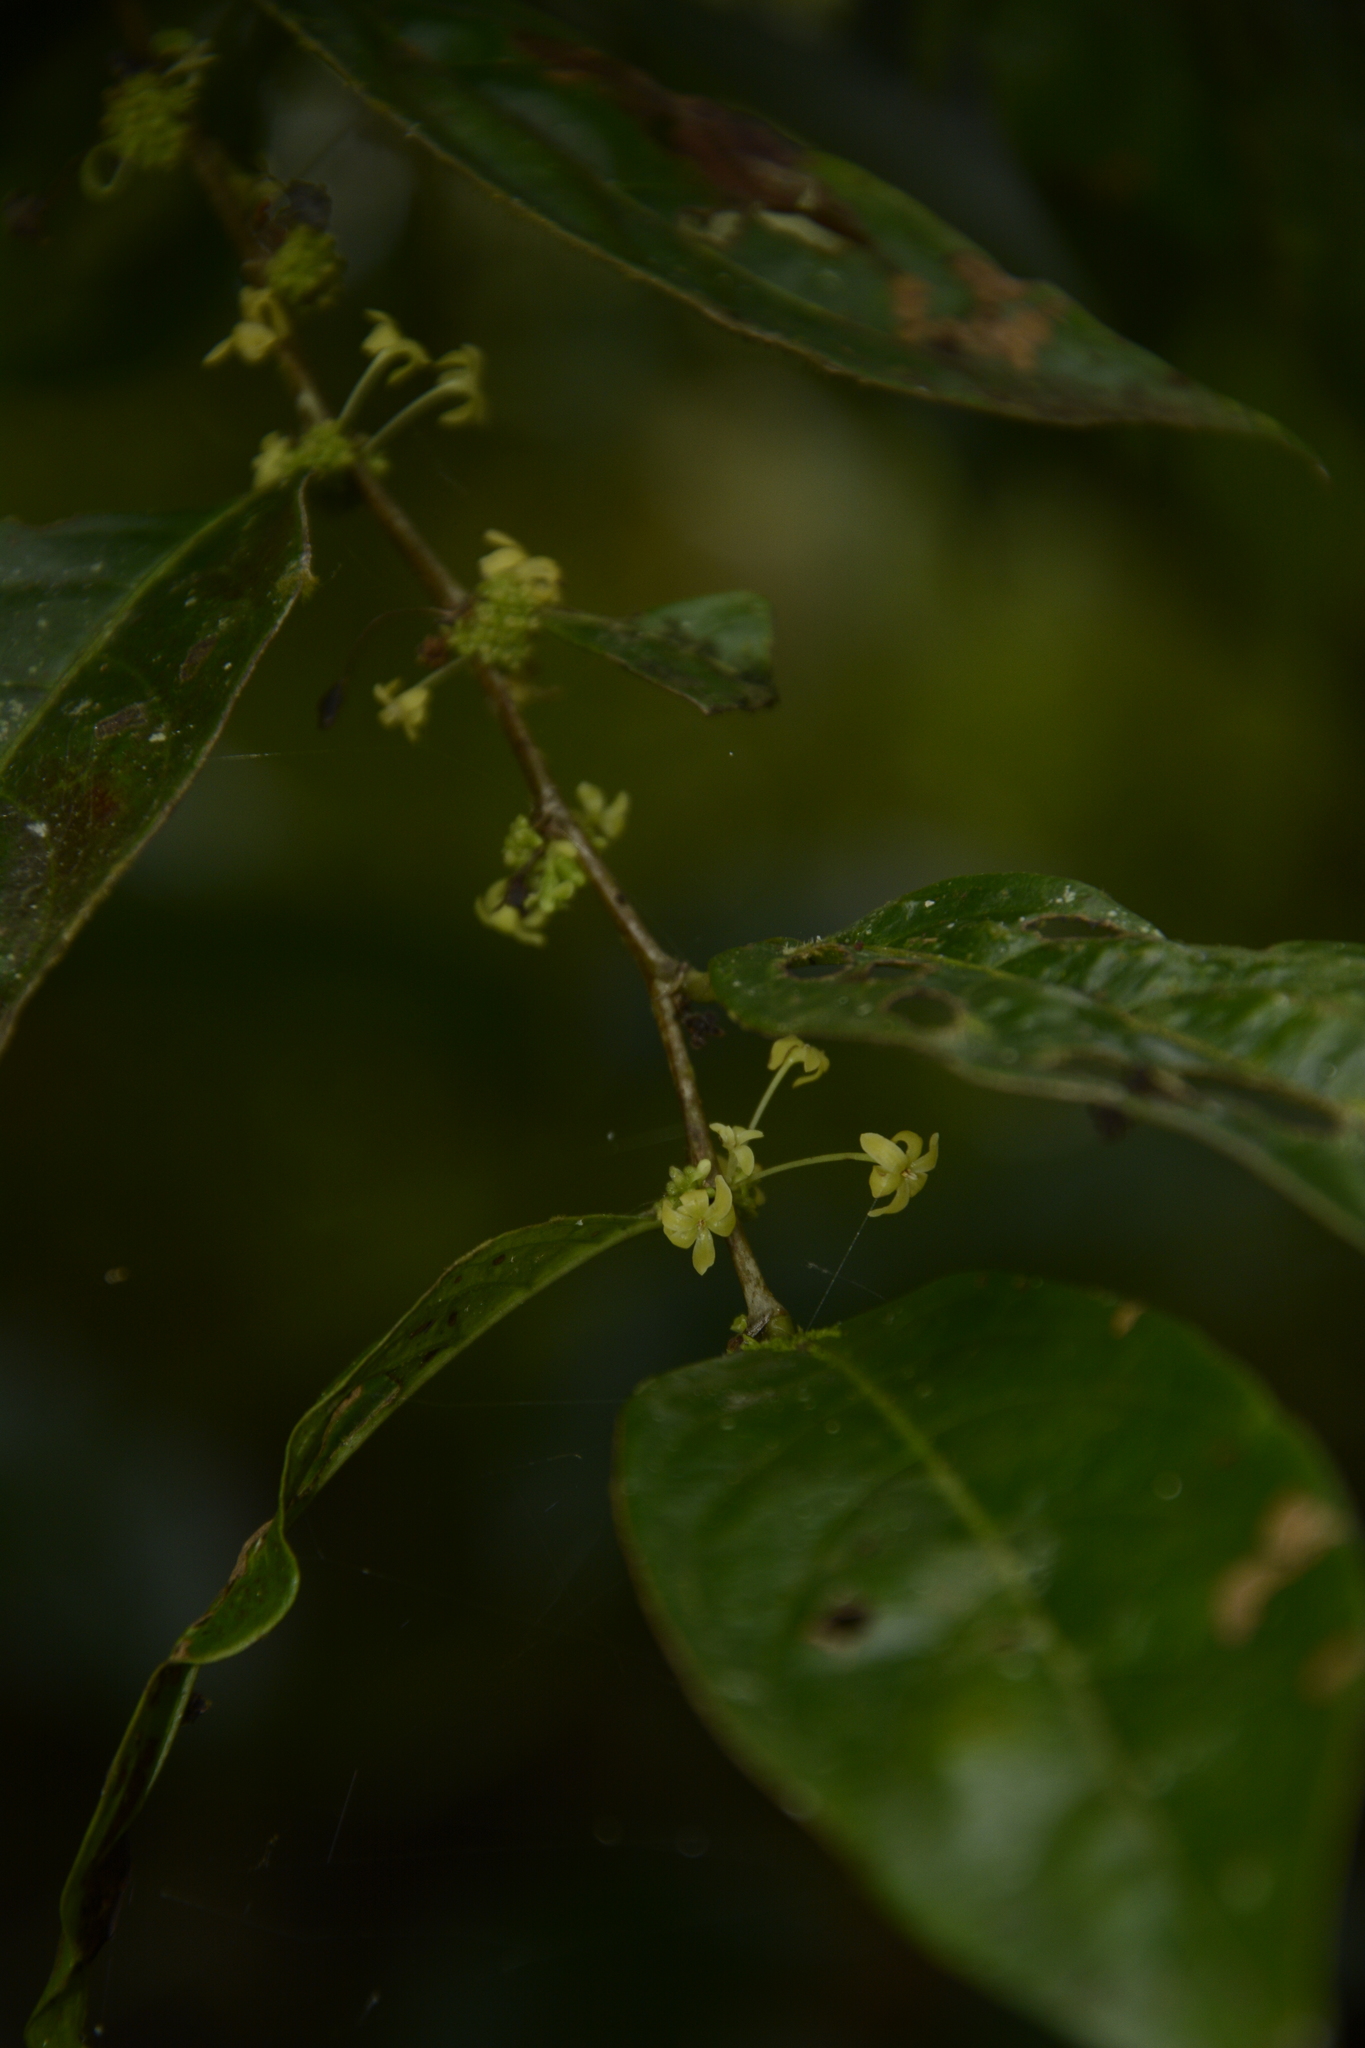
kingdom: Plantae
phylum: Tracheophyta
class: Magnoliopsida
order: Malpighiales
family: Phyllanthaceae
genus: Glochidion
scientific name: Glochidion ellipticum
